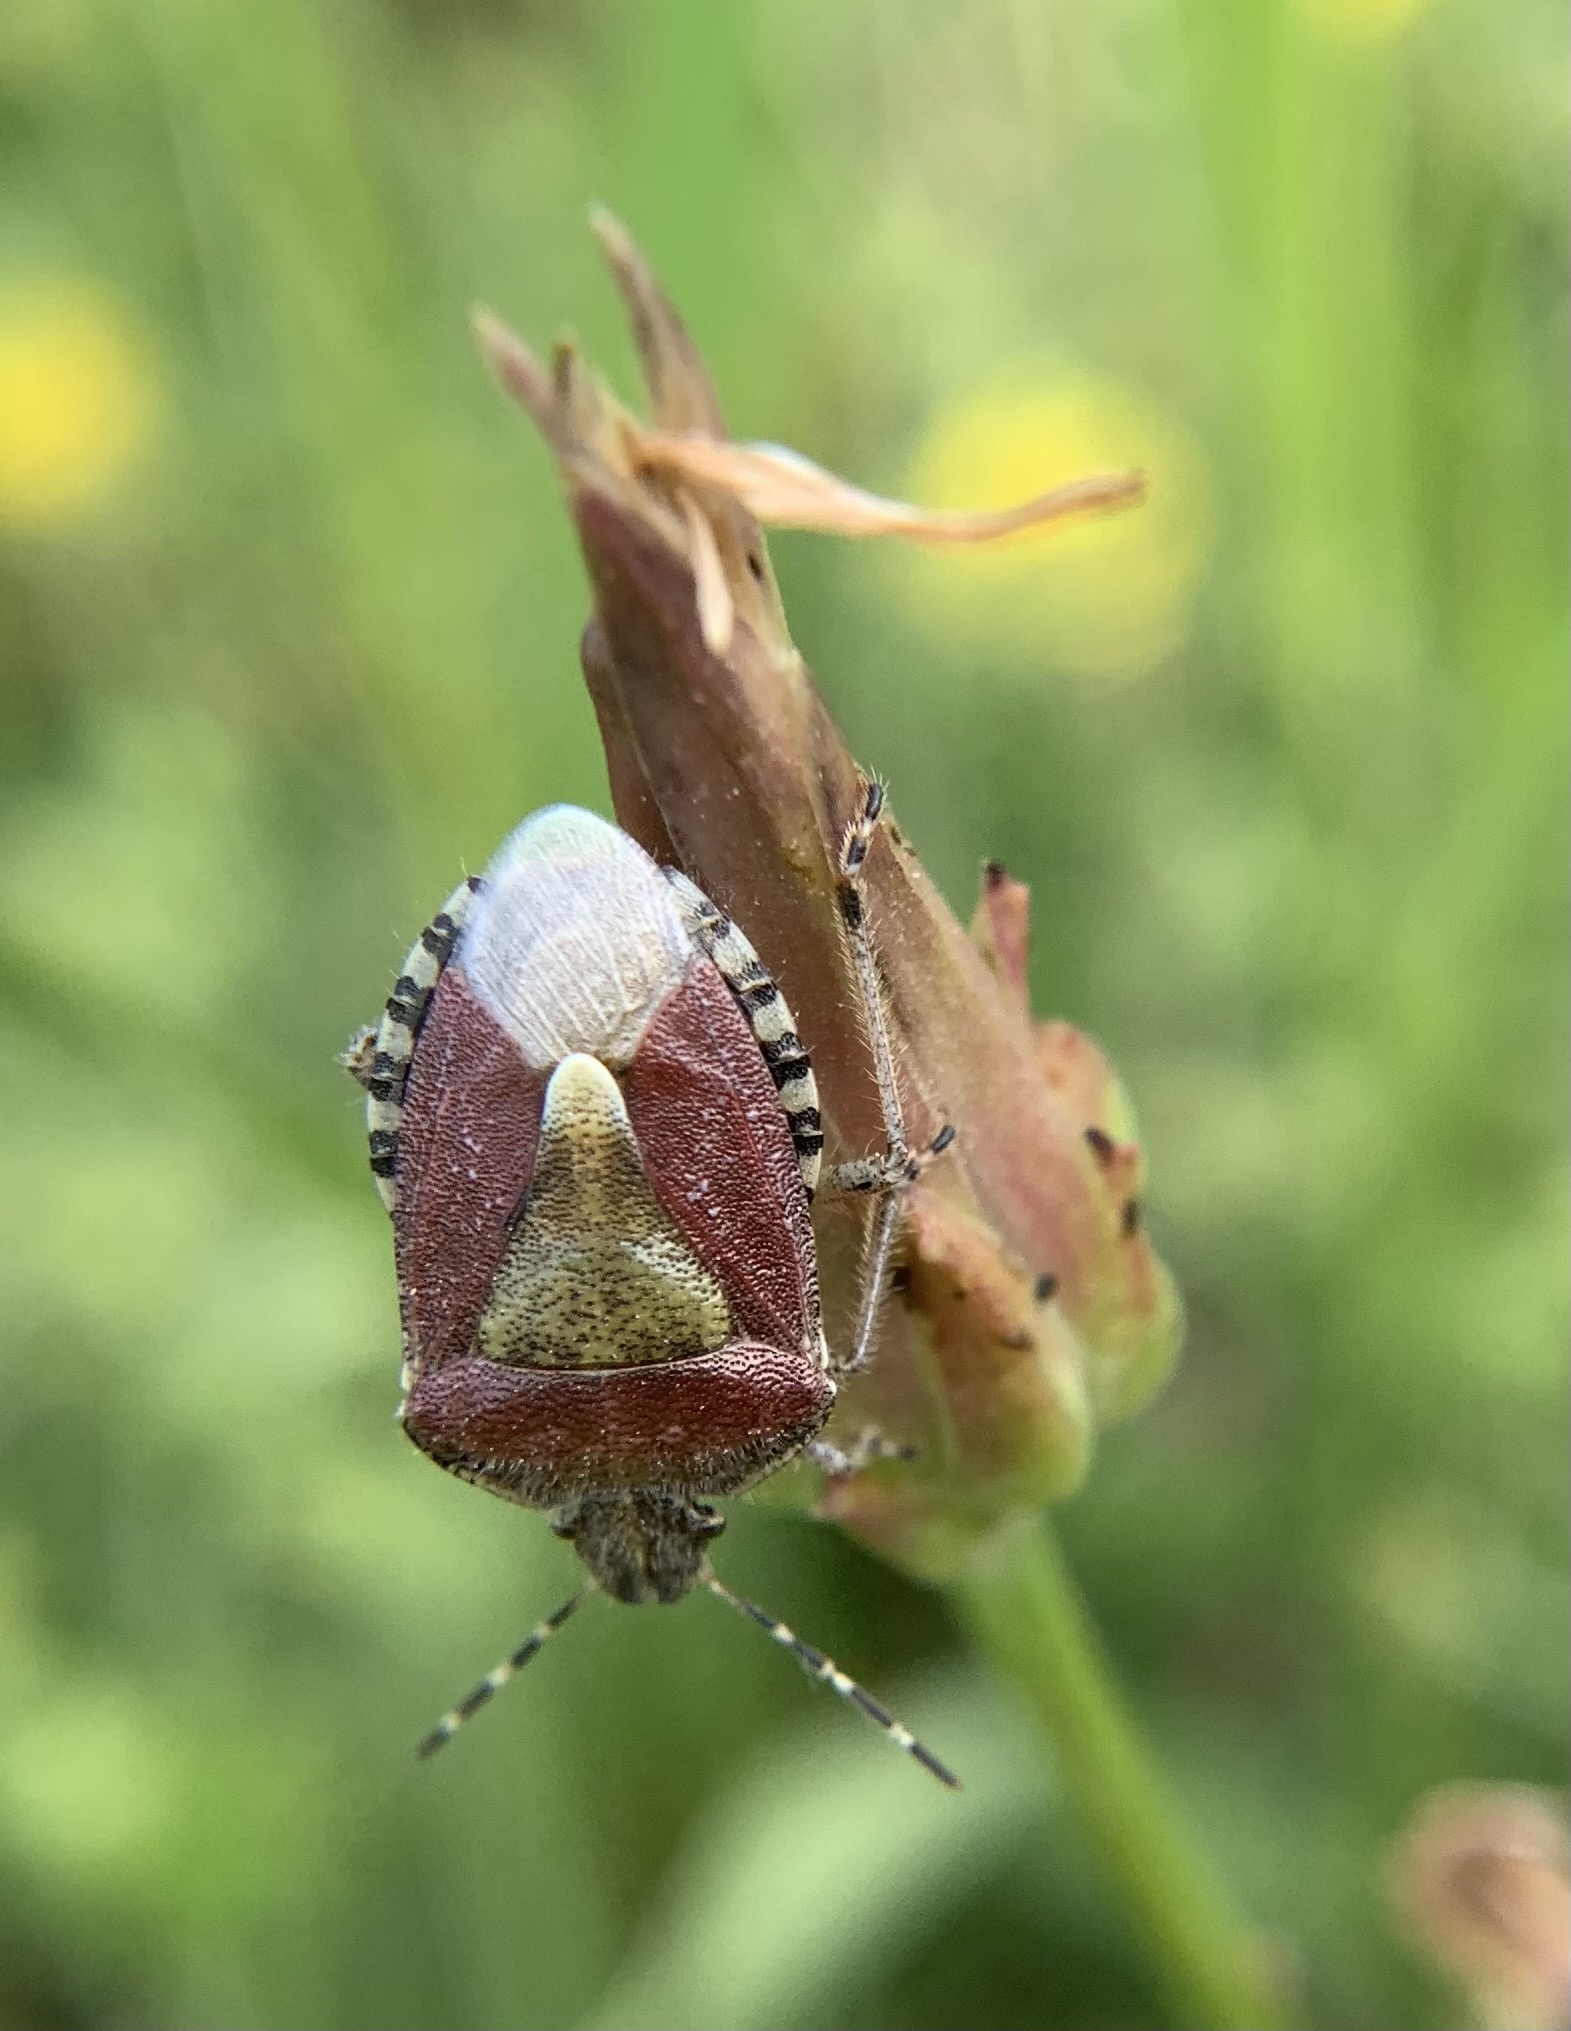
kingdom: Animalia
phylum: Arthropoda
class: Insecta
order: Hemiptera
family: Pentatomidae
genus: Dolycoris
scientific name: Dolycoris baccarum
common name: Sloe bug
